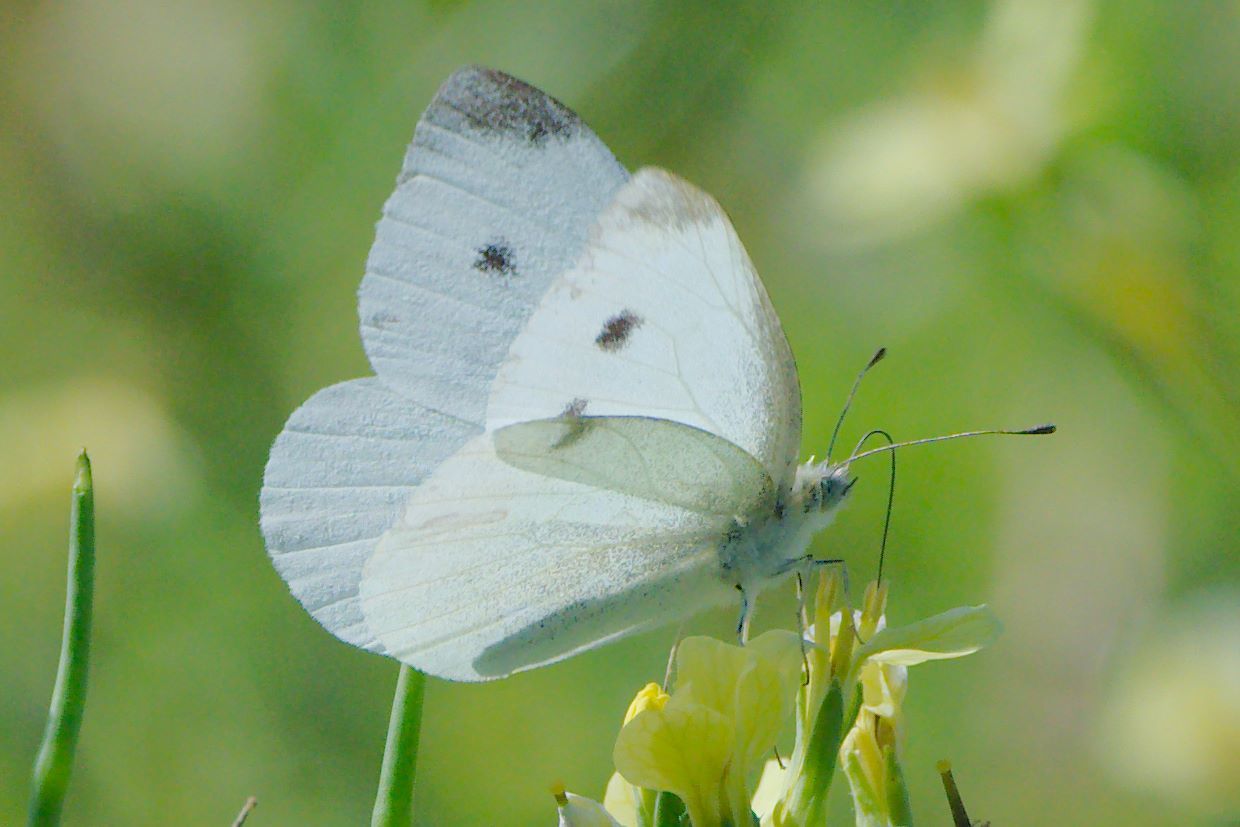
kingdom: Animalia
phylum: Arthropoda
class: Insecta
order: Lepidoptera
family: Pieridae
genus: Pieris
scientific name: Pieris rapae
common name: Small white
